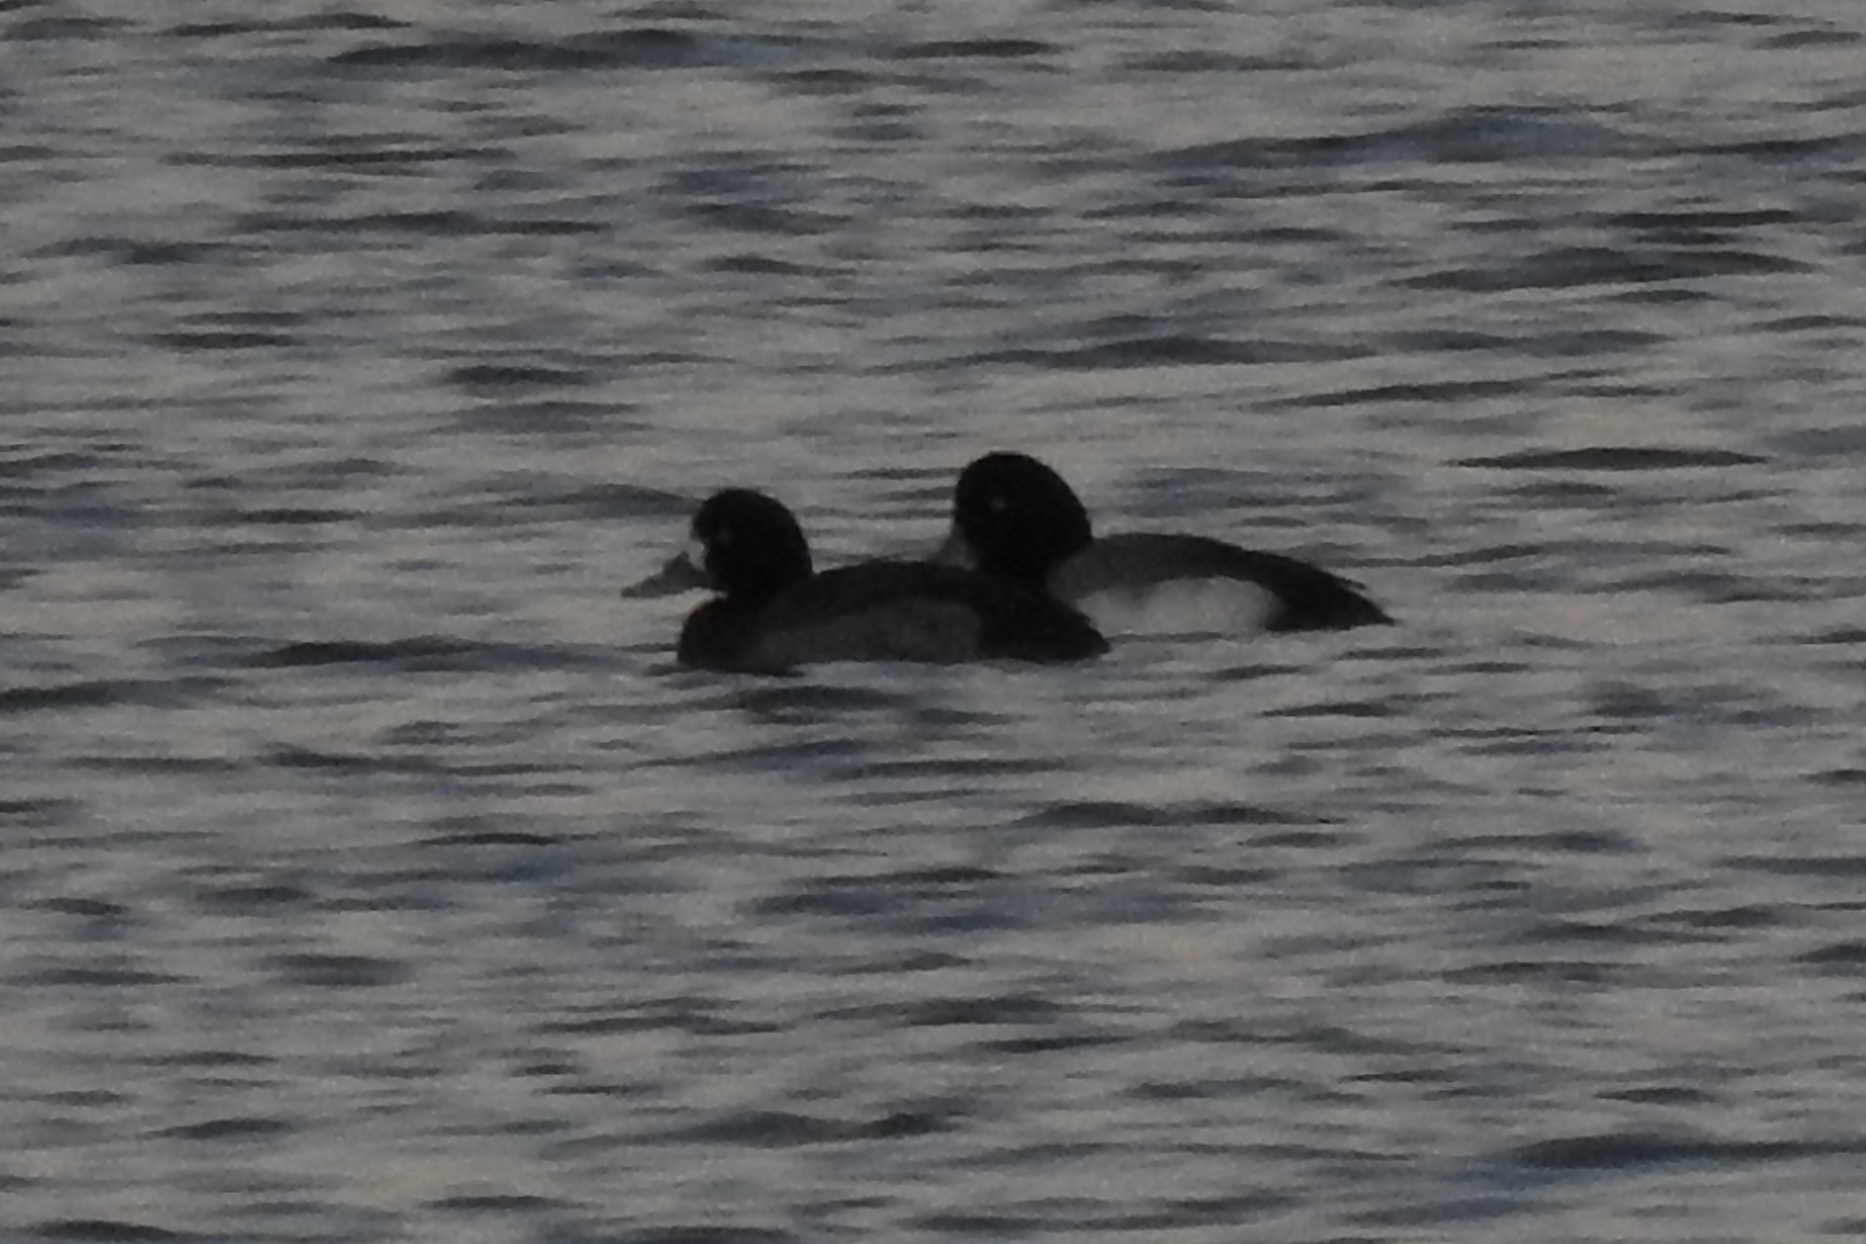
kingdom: Animalia
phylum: Chordata
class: Aves
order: Anseriformes
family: Anatidae
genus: Aythya
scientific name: Aythya marila
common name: Greater scaup
